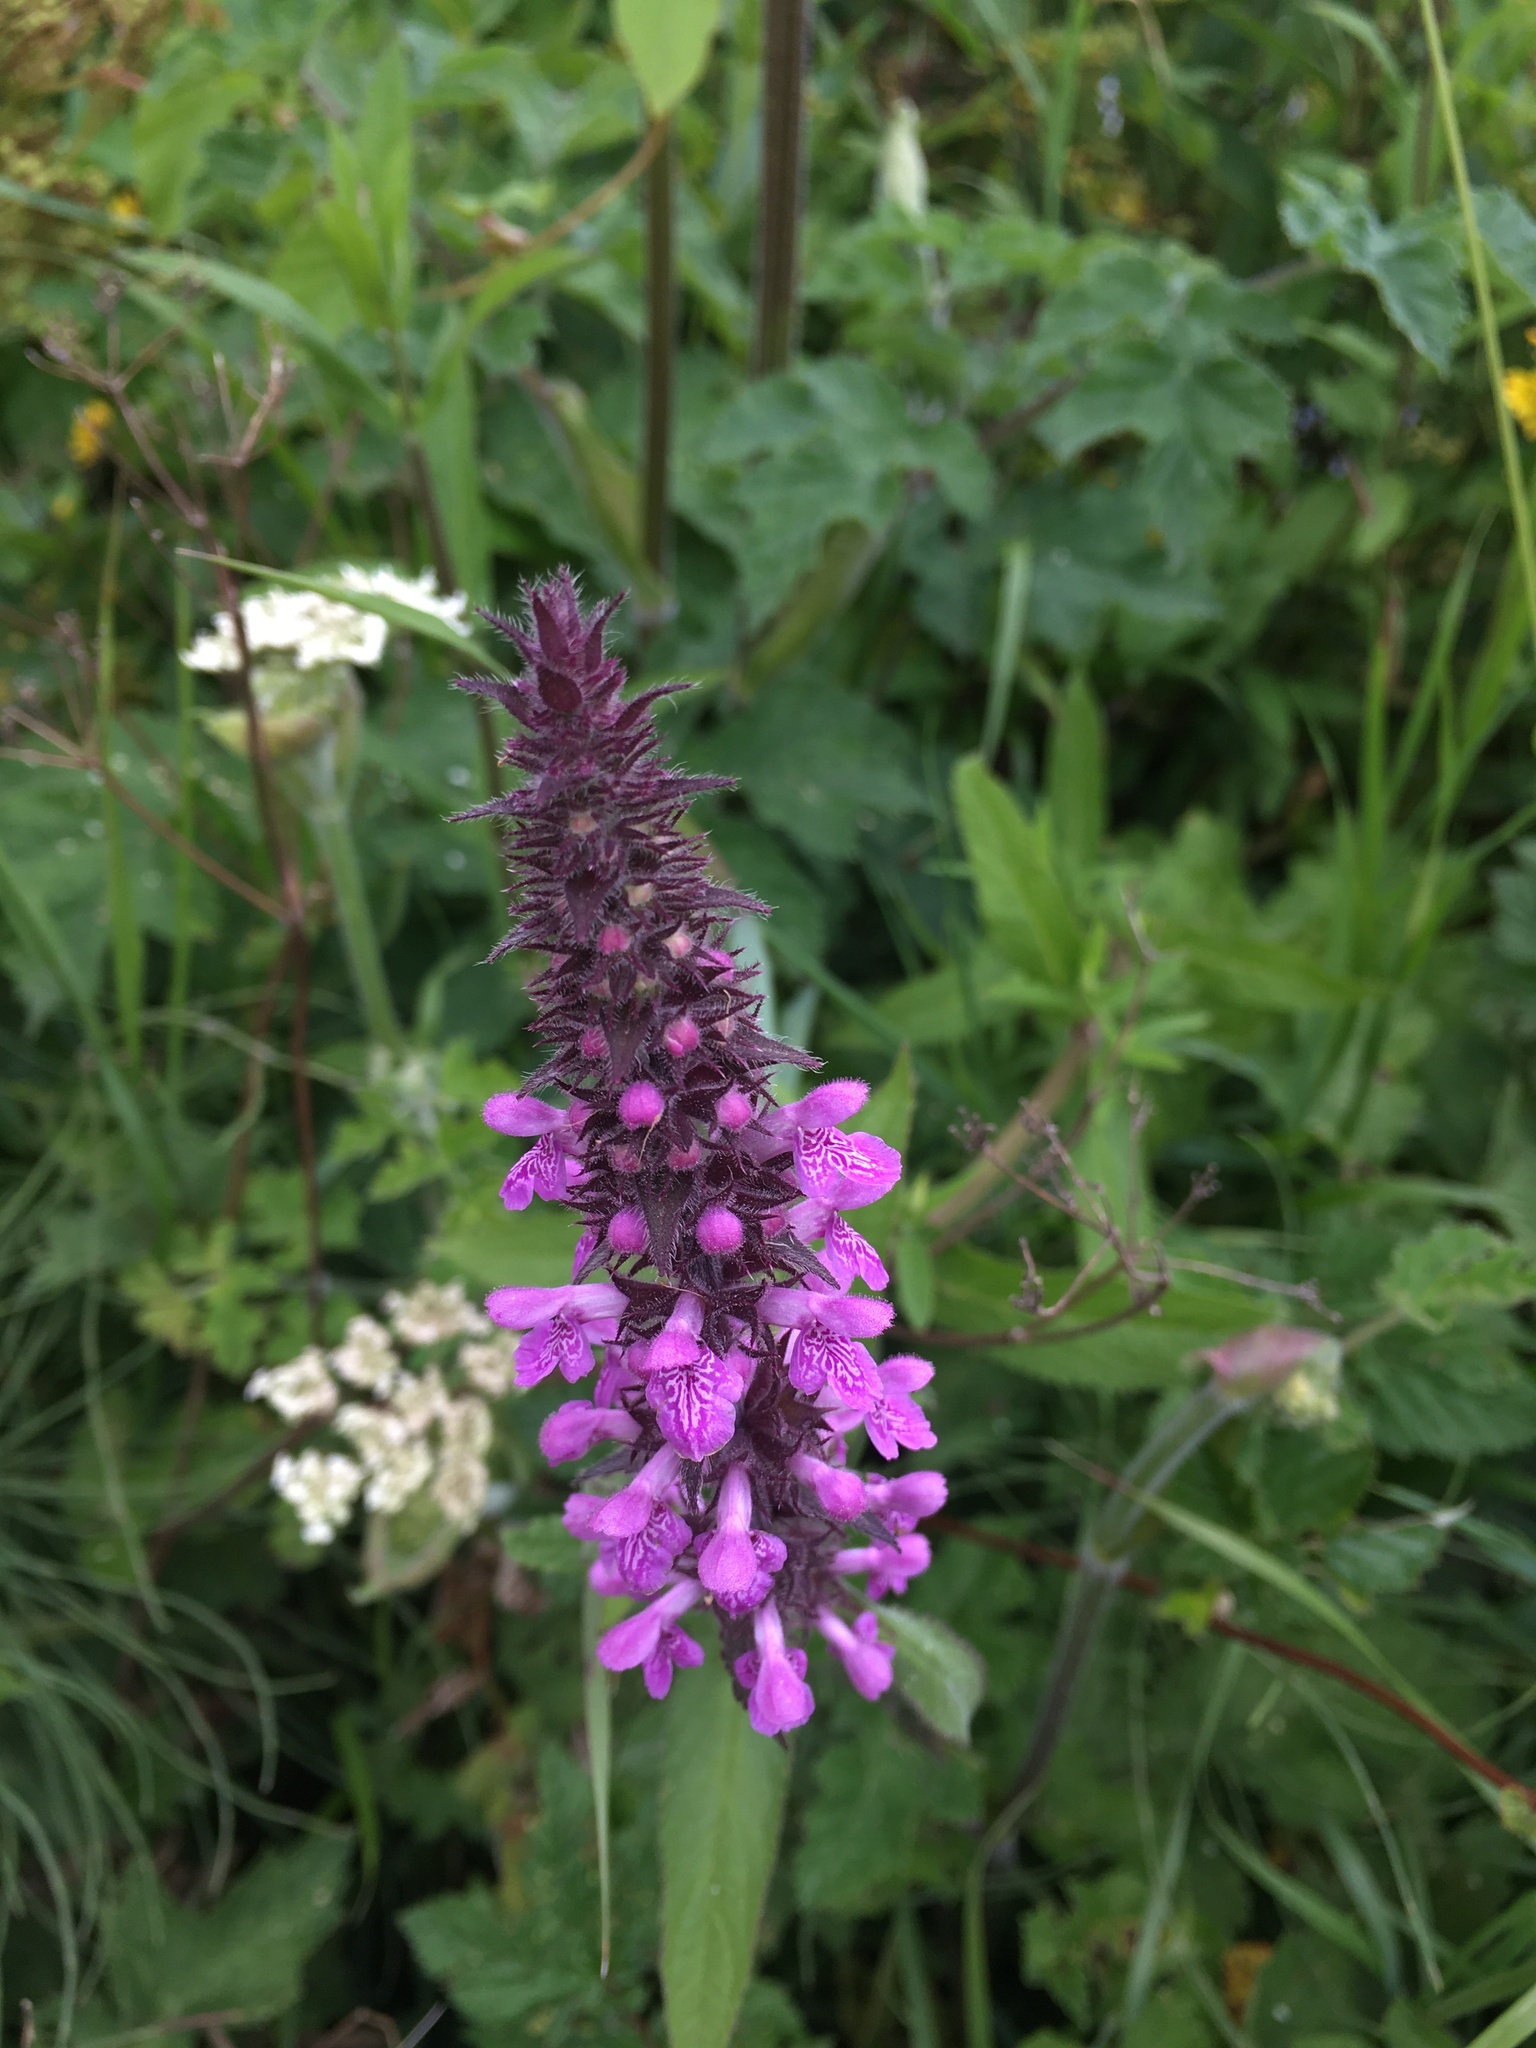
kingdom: Plantae
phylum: Tracheophyta
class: Magnoliopsida
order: Lamiales
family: Lamiaceae
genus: Stachys
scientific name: Stachys palustris
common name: Marsh woundwort
